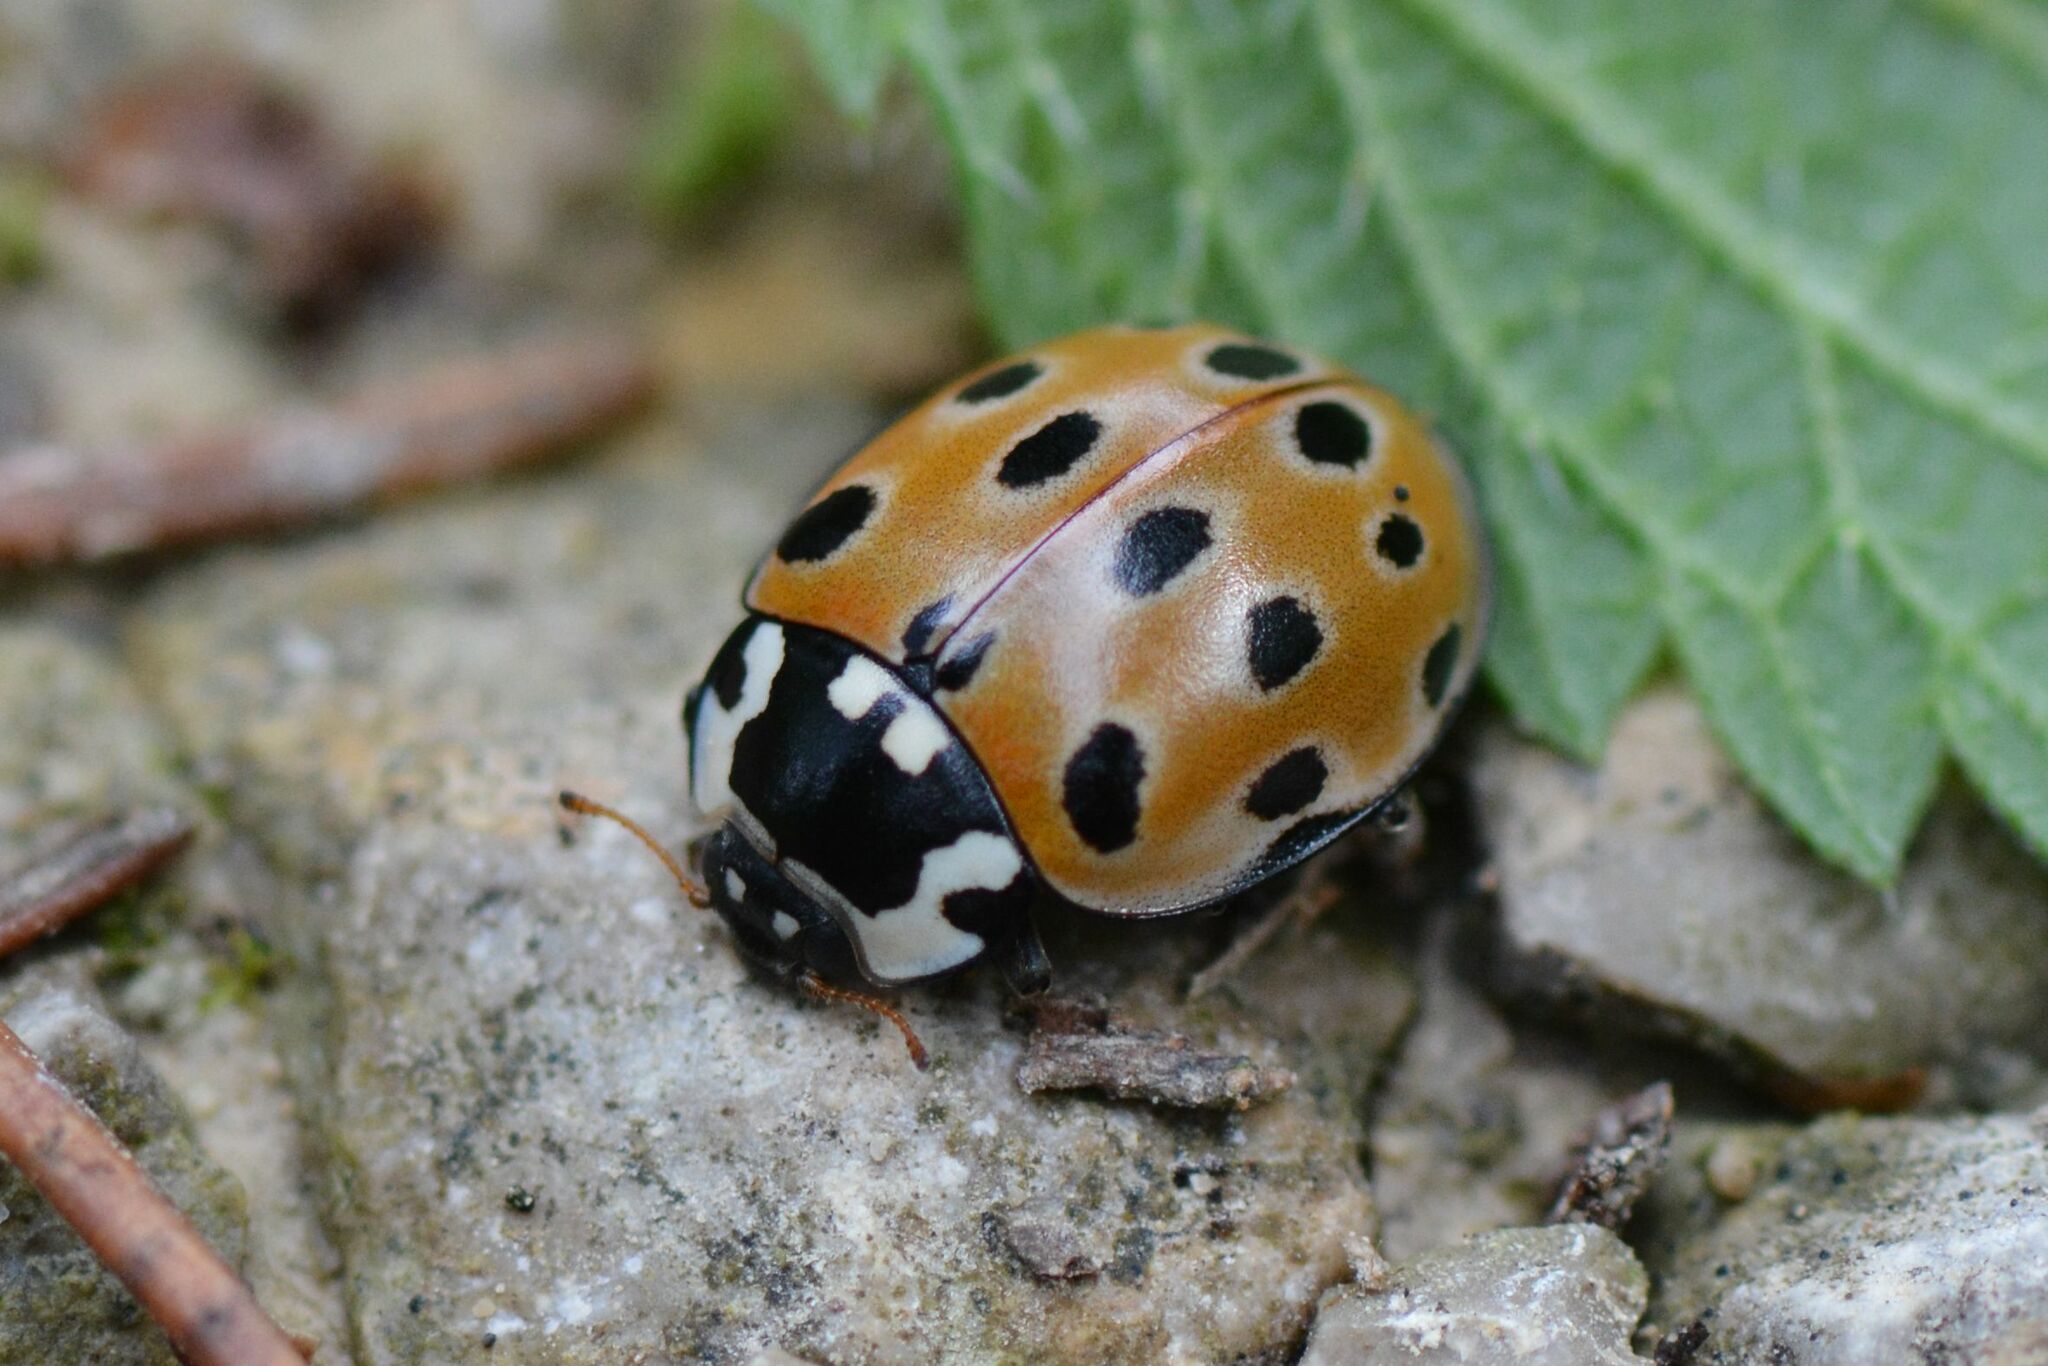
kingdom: Animalia
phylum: Arthropoda
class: Insecta
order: Coleoptera
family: Coccinellidae
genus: Anatis
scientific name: Anatis ocellata
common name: Eyed ladybird
